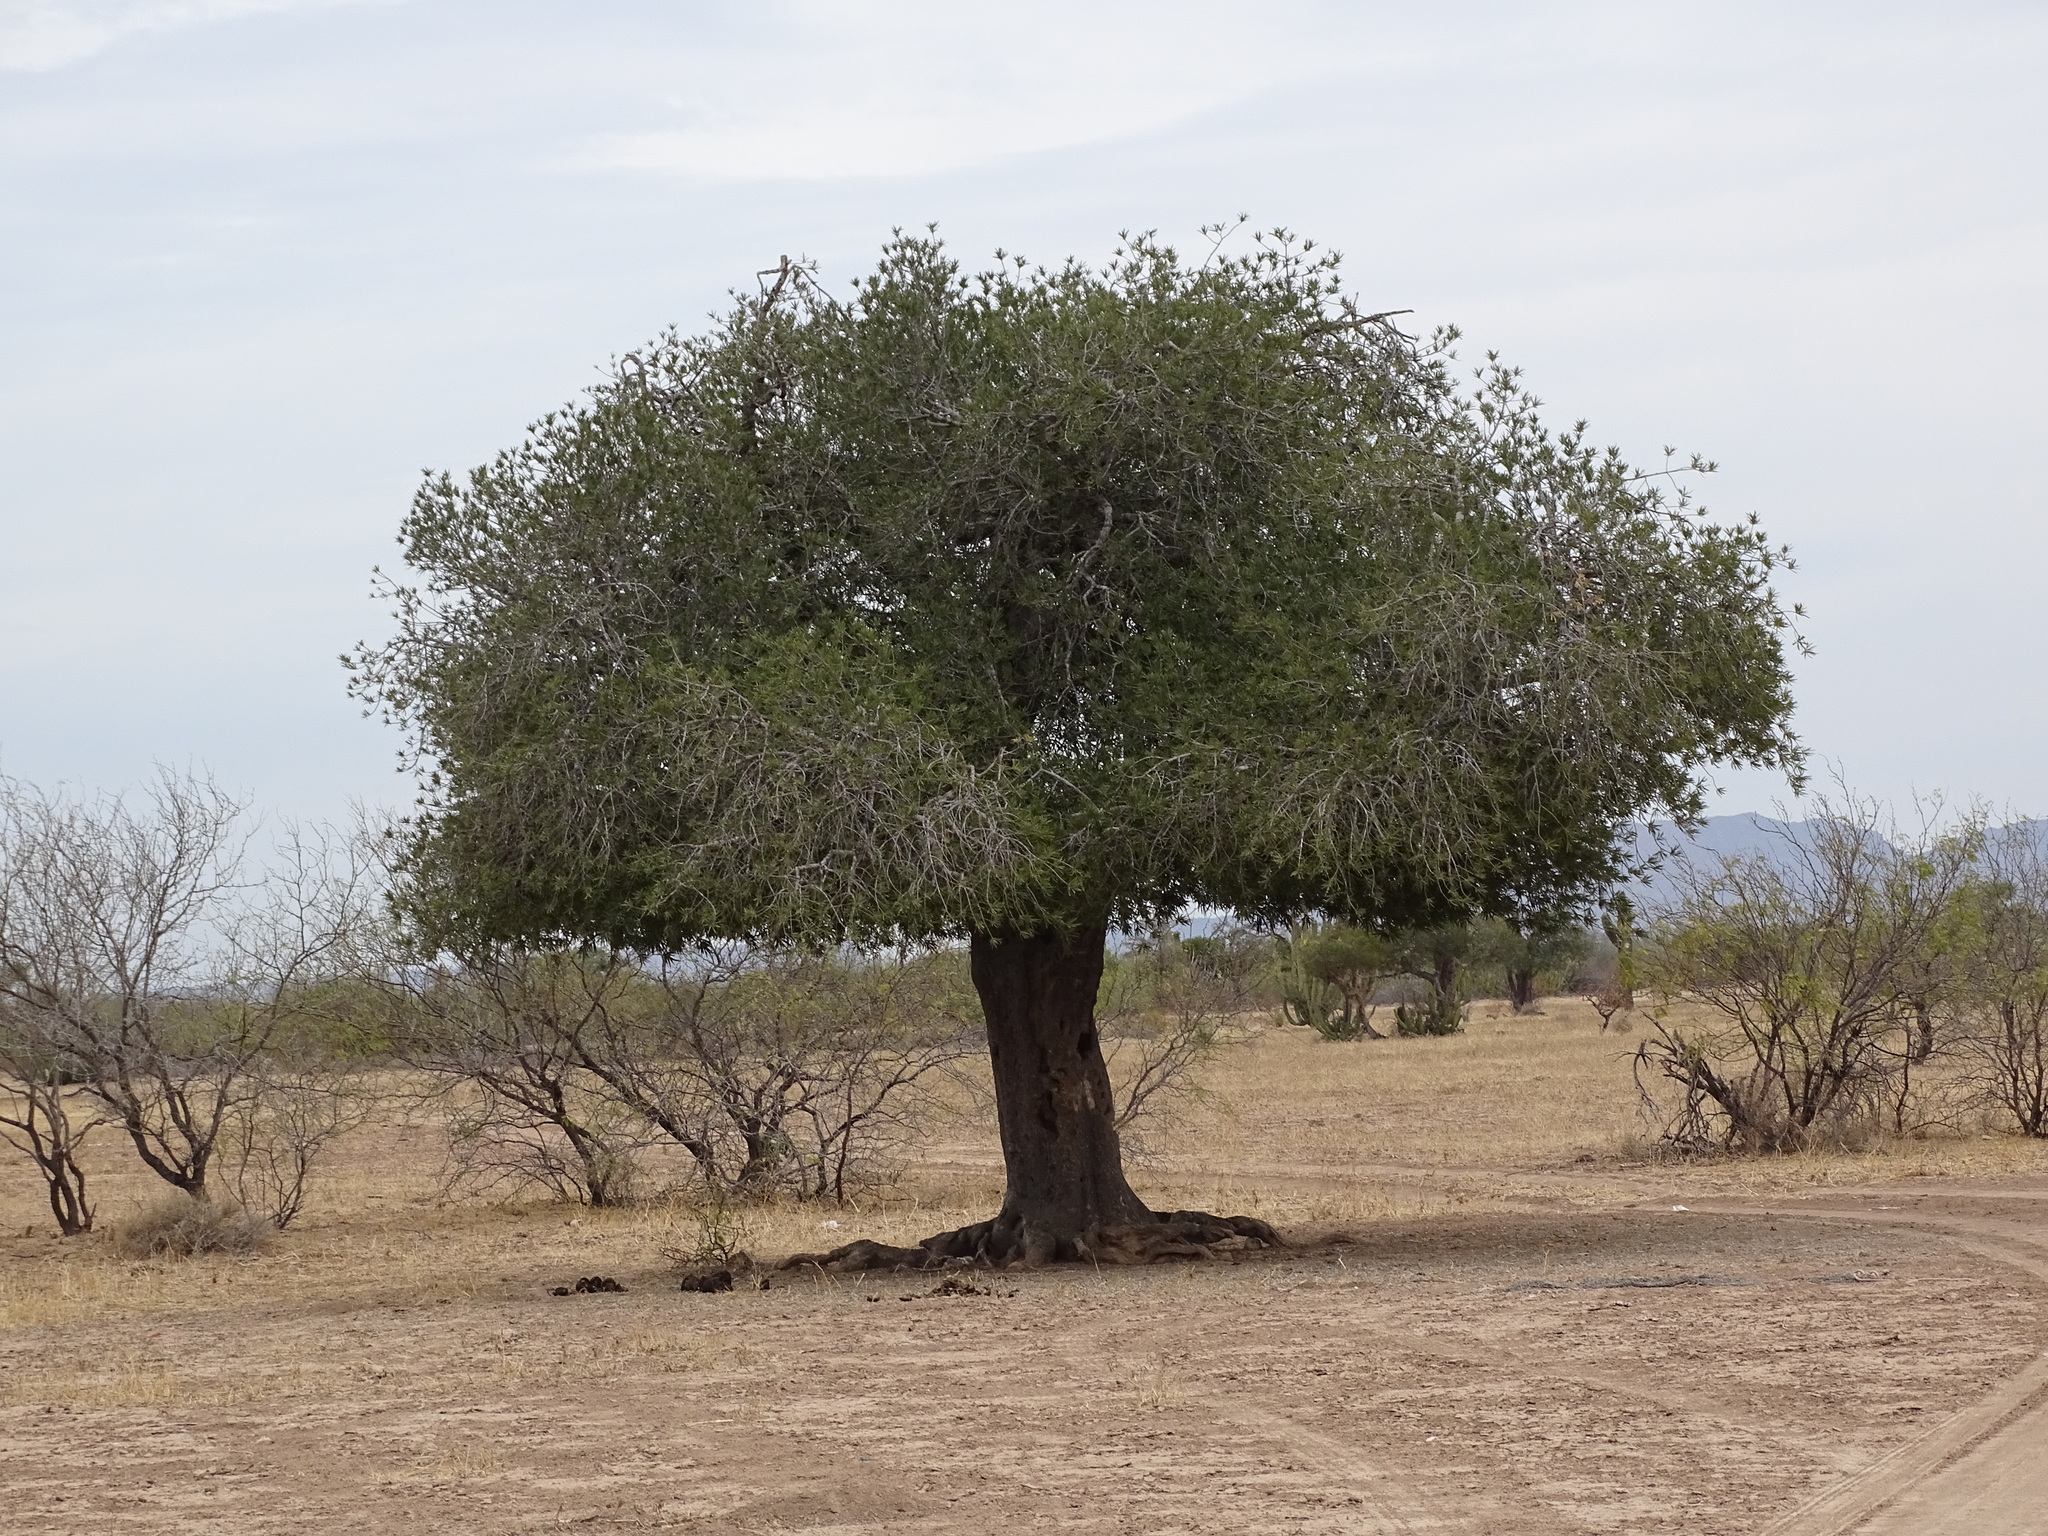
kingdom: Plantae
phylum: Tracheophyta
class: Magnoliopsida
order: Brassicales
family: Stixaceae
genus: Forchhammeria
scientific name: Forchhammeria watsonii
